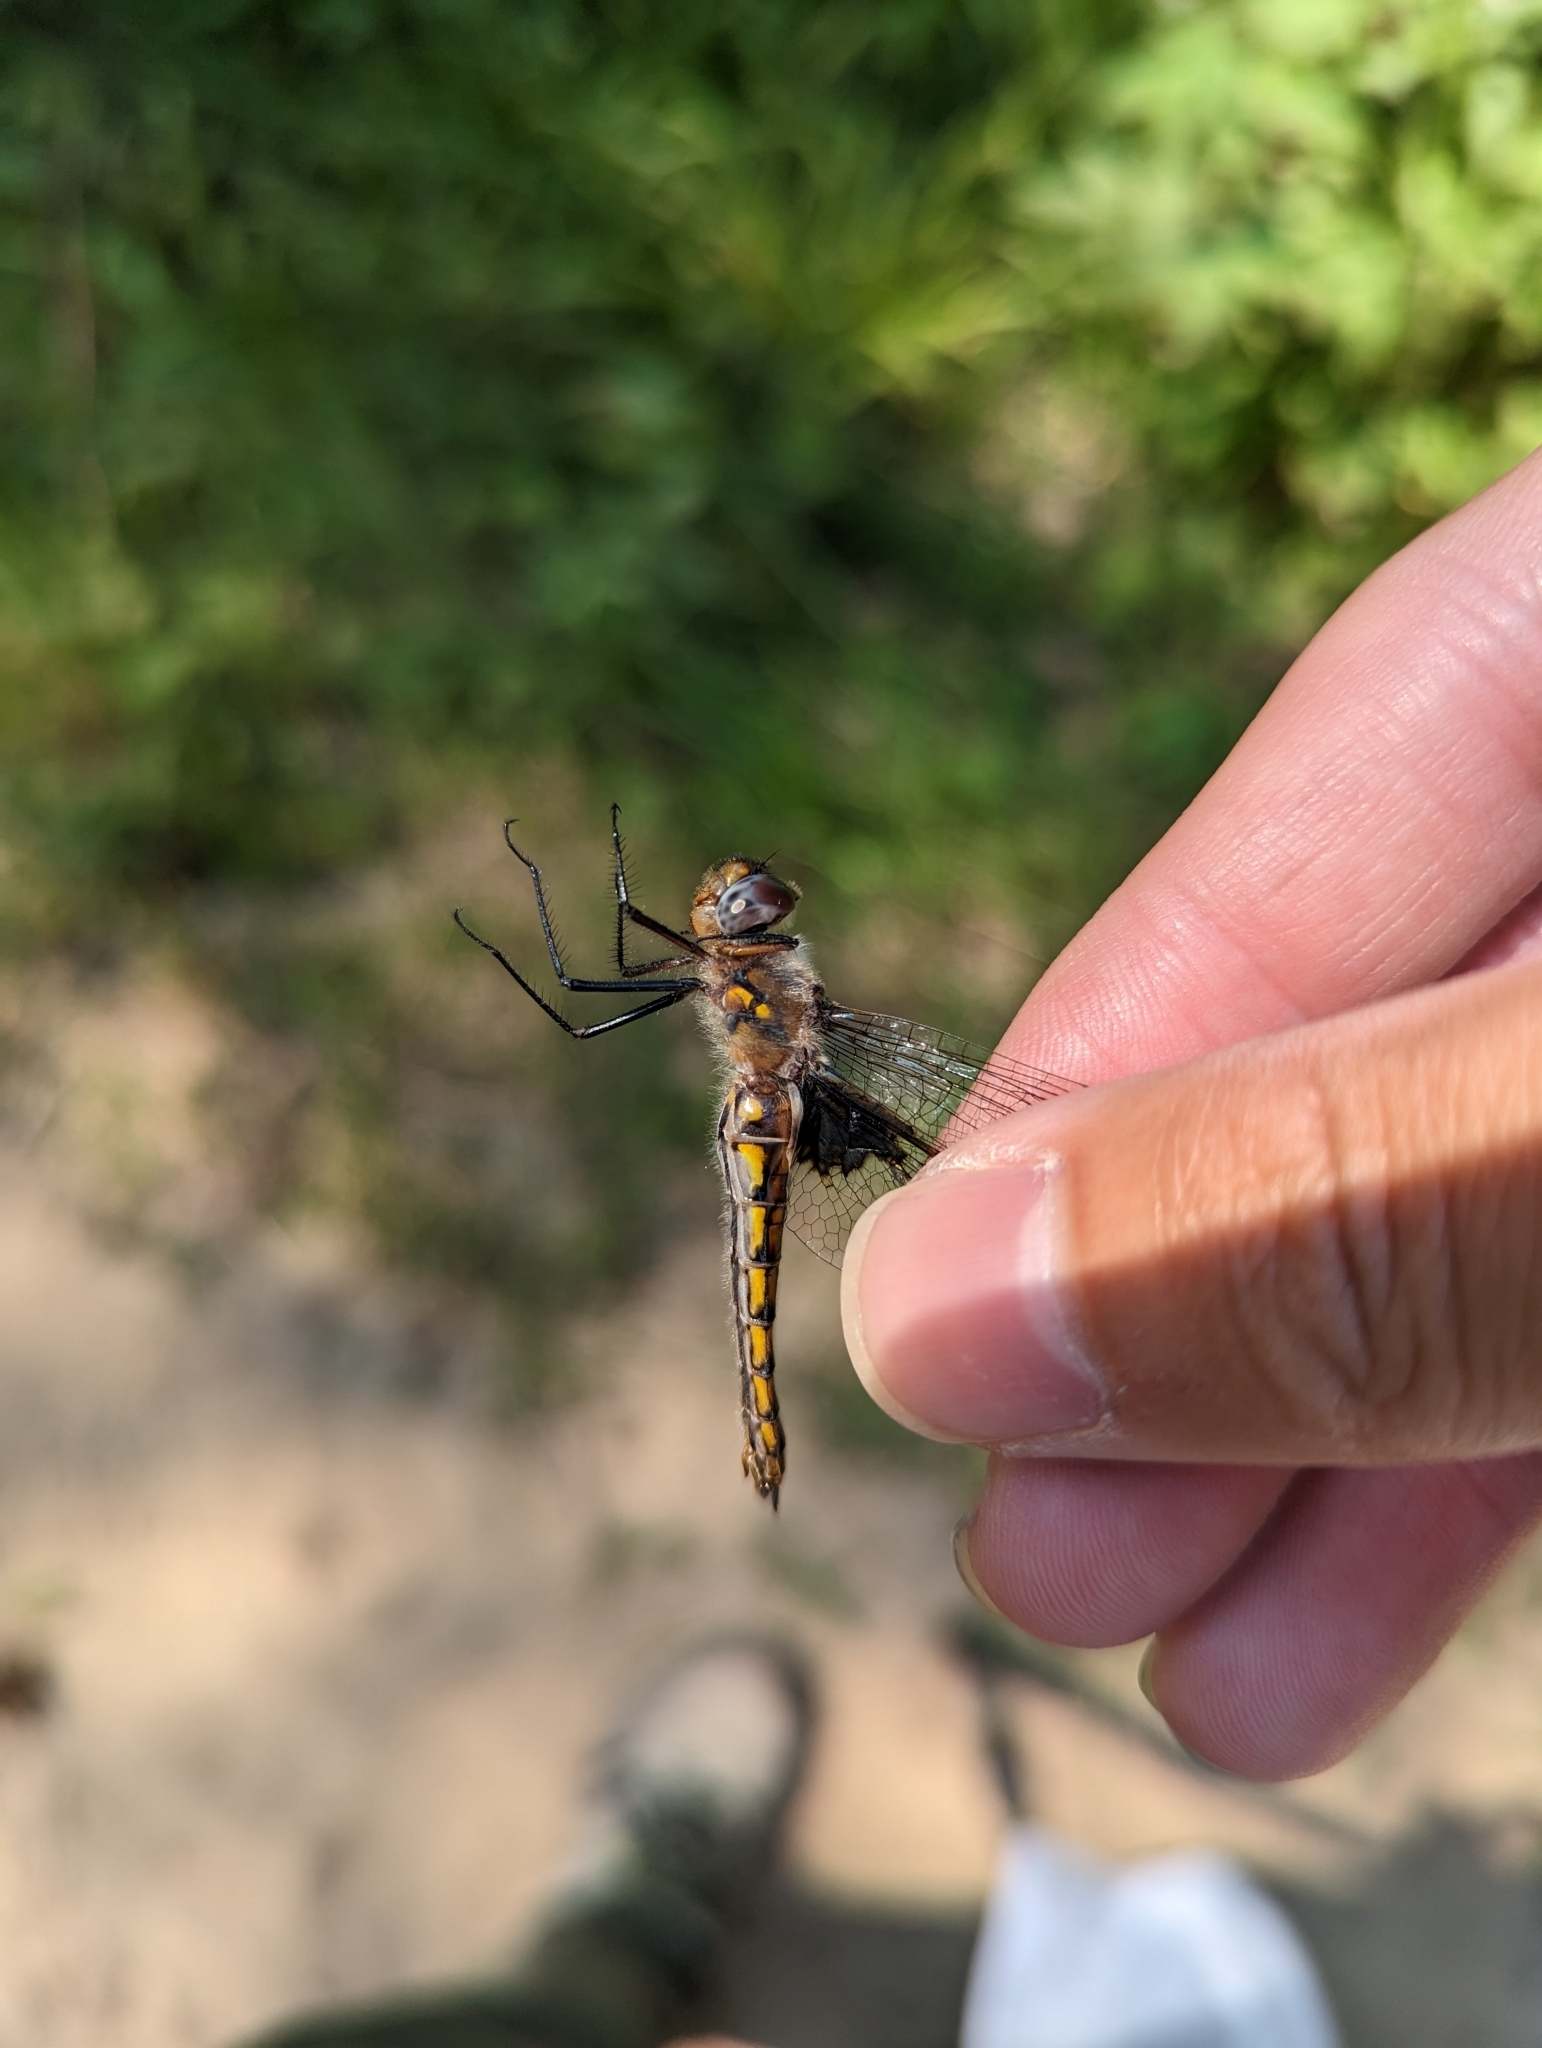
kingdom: Animalia
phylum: Arthropoda
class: Insecta
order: Odonata
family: Corduliidae
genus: Epitheca
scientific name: Epitheca cynosura
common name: Common baskettail
